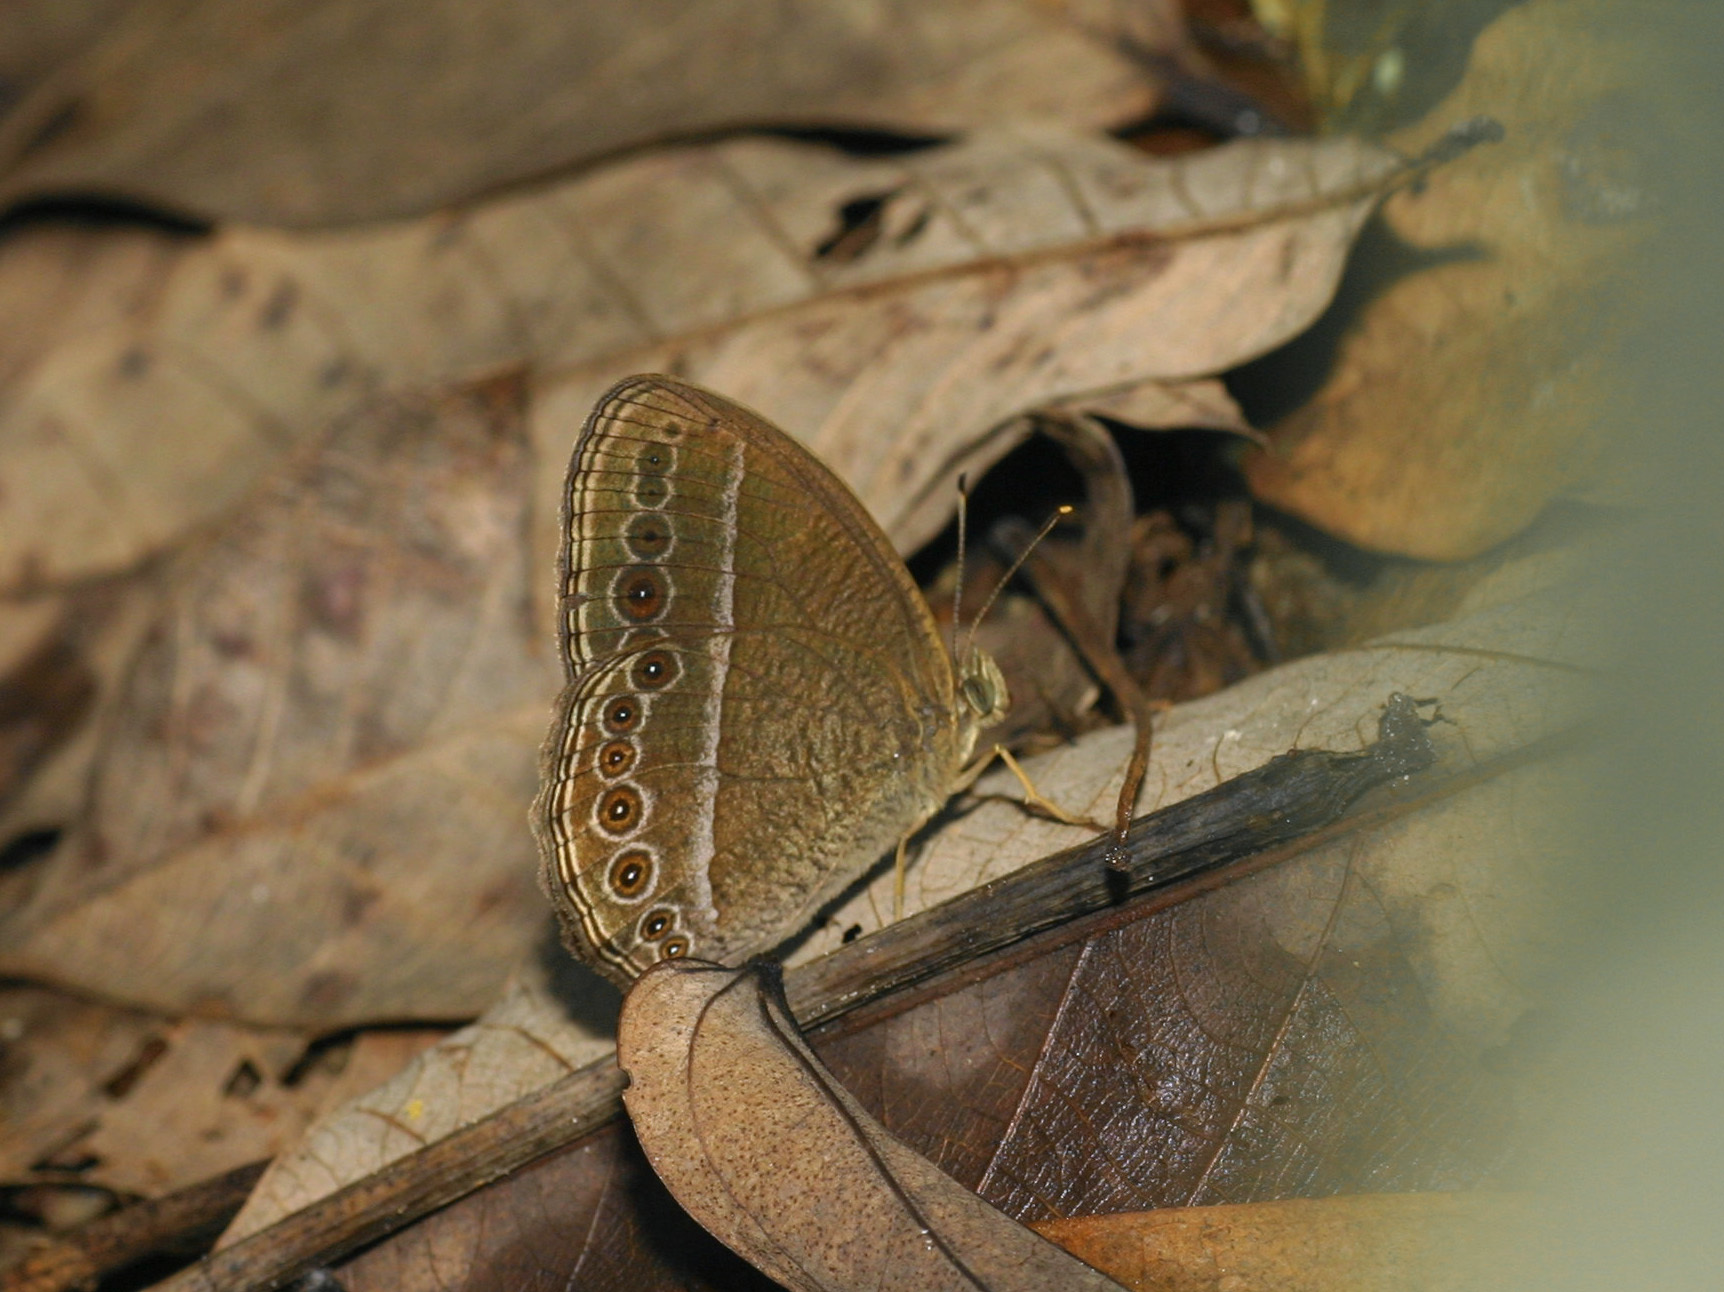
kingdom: Animalia
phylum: Arthropoda
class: Insecta
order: Lepidoptera
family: Nymphalidae
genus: Mycalesis
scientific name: Mycalesis Telinga janardana
